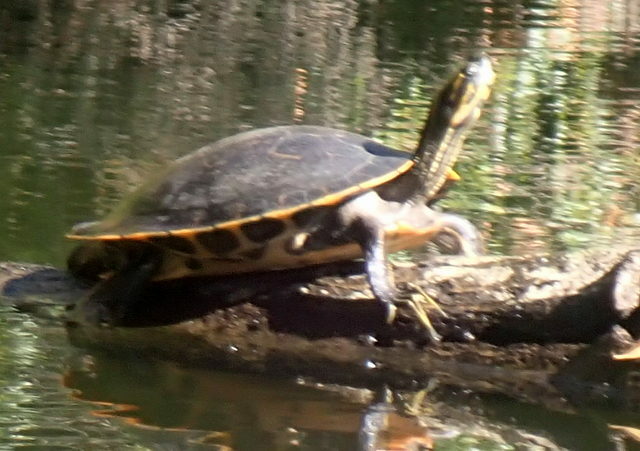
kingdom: Animalia
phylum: Chordata
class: Testudines
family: Emydidae
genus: Pseudemys
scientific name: Pseudemys concinna
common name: Eastern river cooter
